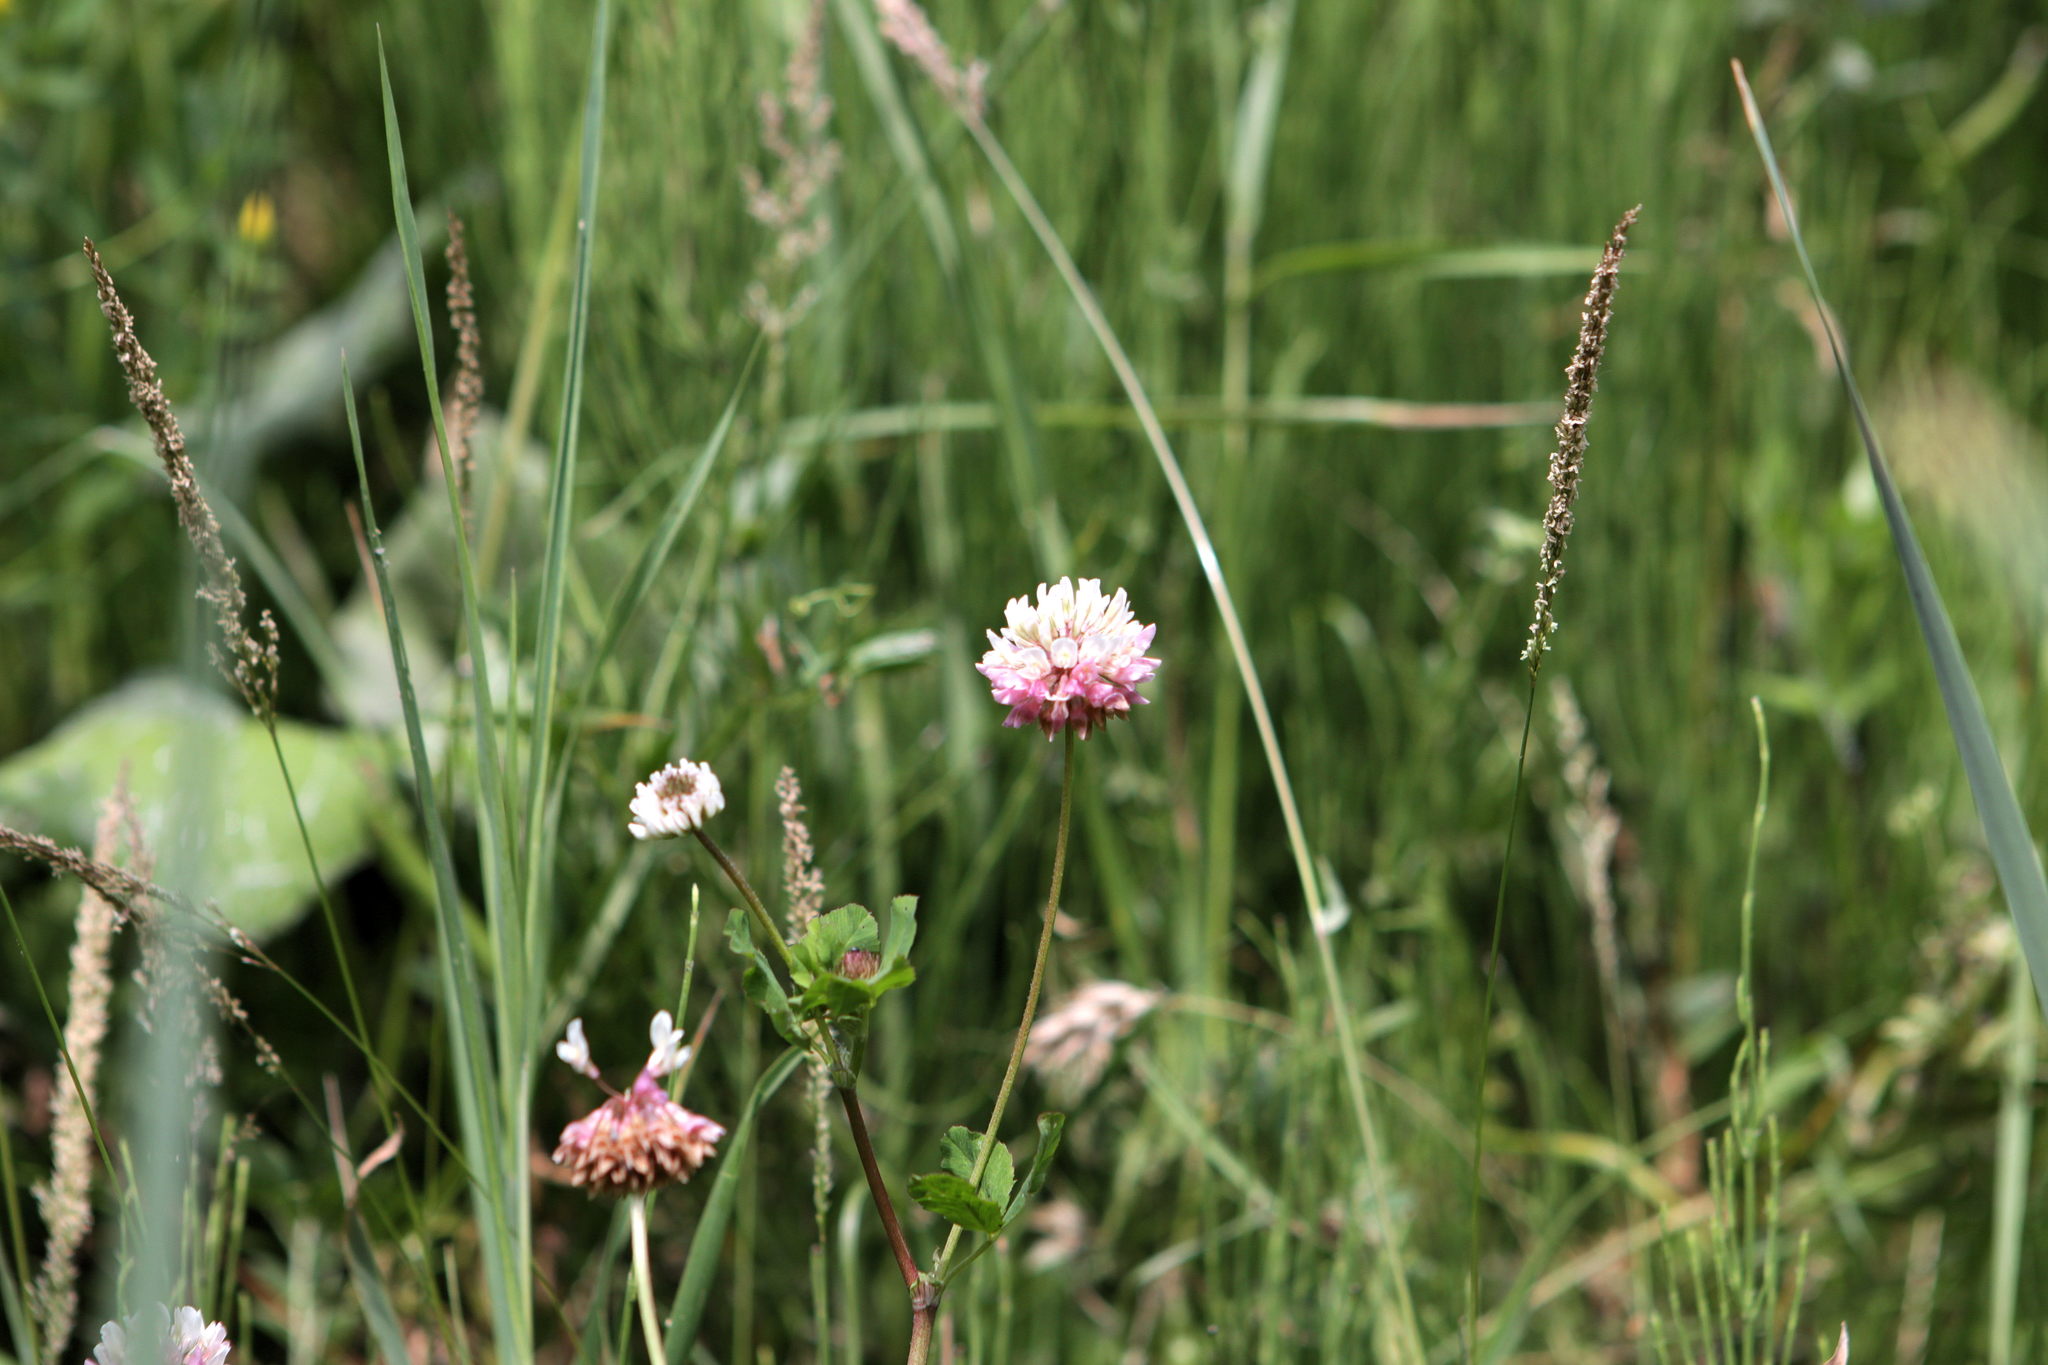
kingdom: Plantae
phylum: Tracheophyta
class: Magnoliopsida
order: Fabales
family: Fabaceae
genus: Trifolium
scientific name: Trifolium hybridum
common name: Alsike clover
